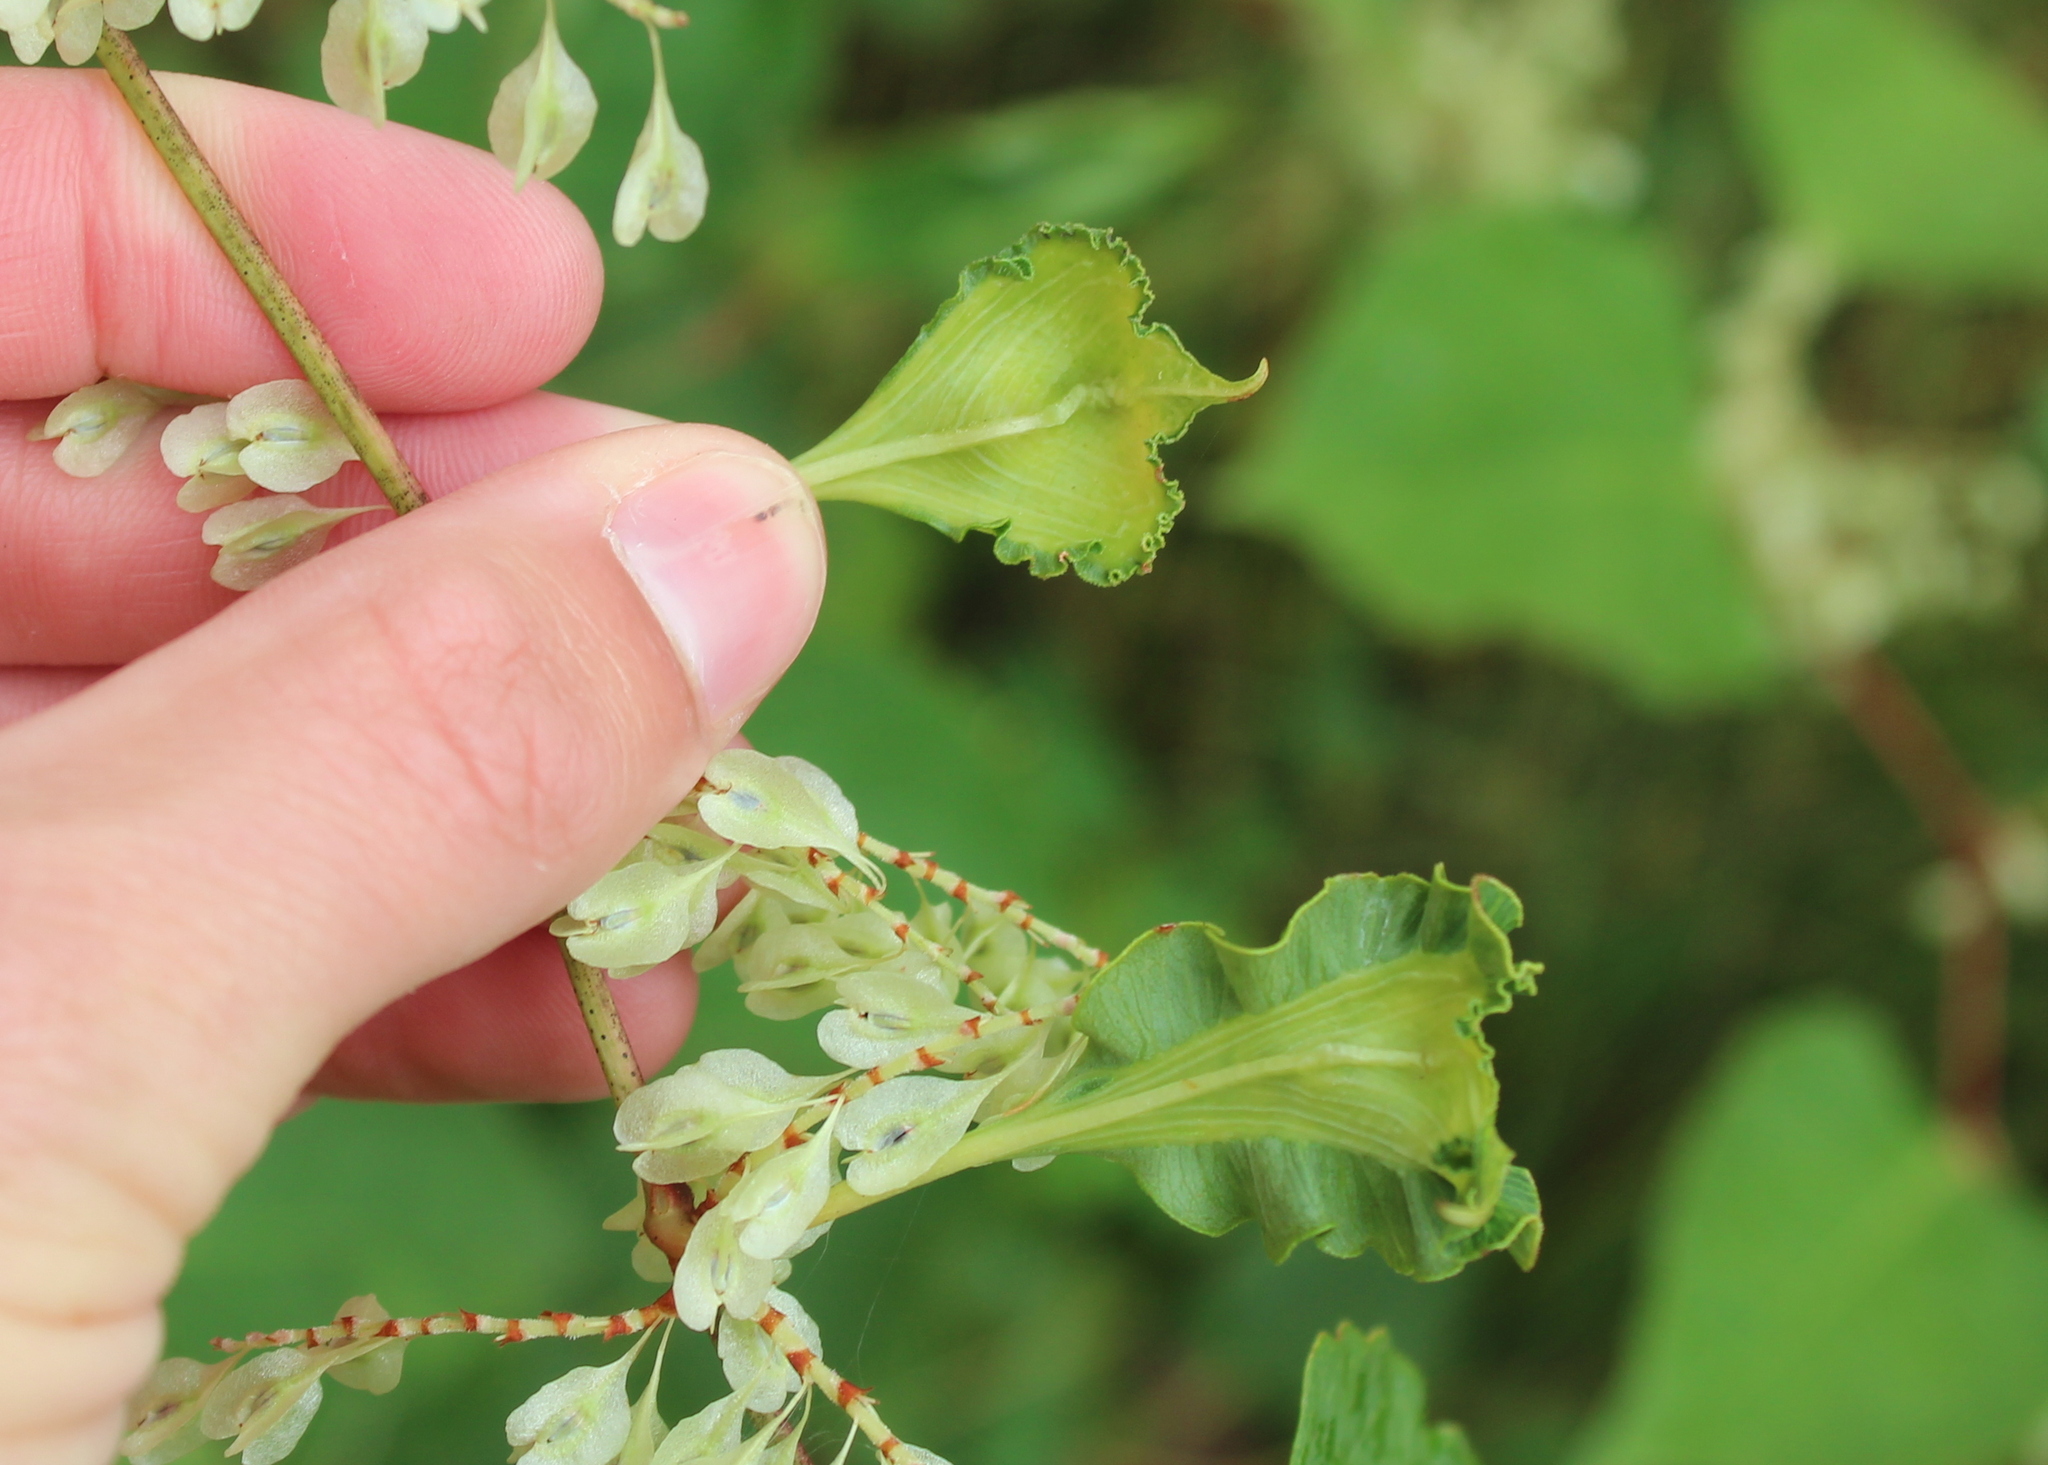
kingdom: Plantae
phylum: Tracheophyta
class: Magnoliopsida
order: Caryophyllales
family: Polygonaceae
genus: Reynoutria
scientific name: Reynoutria japonica
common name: Japanese knotweed
